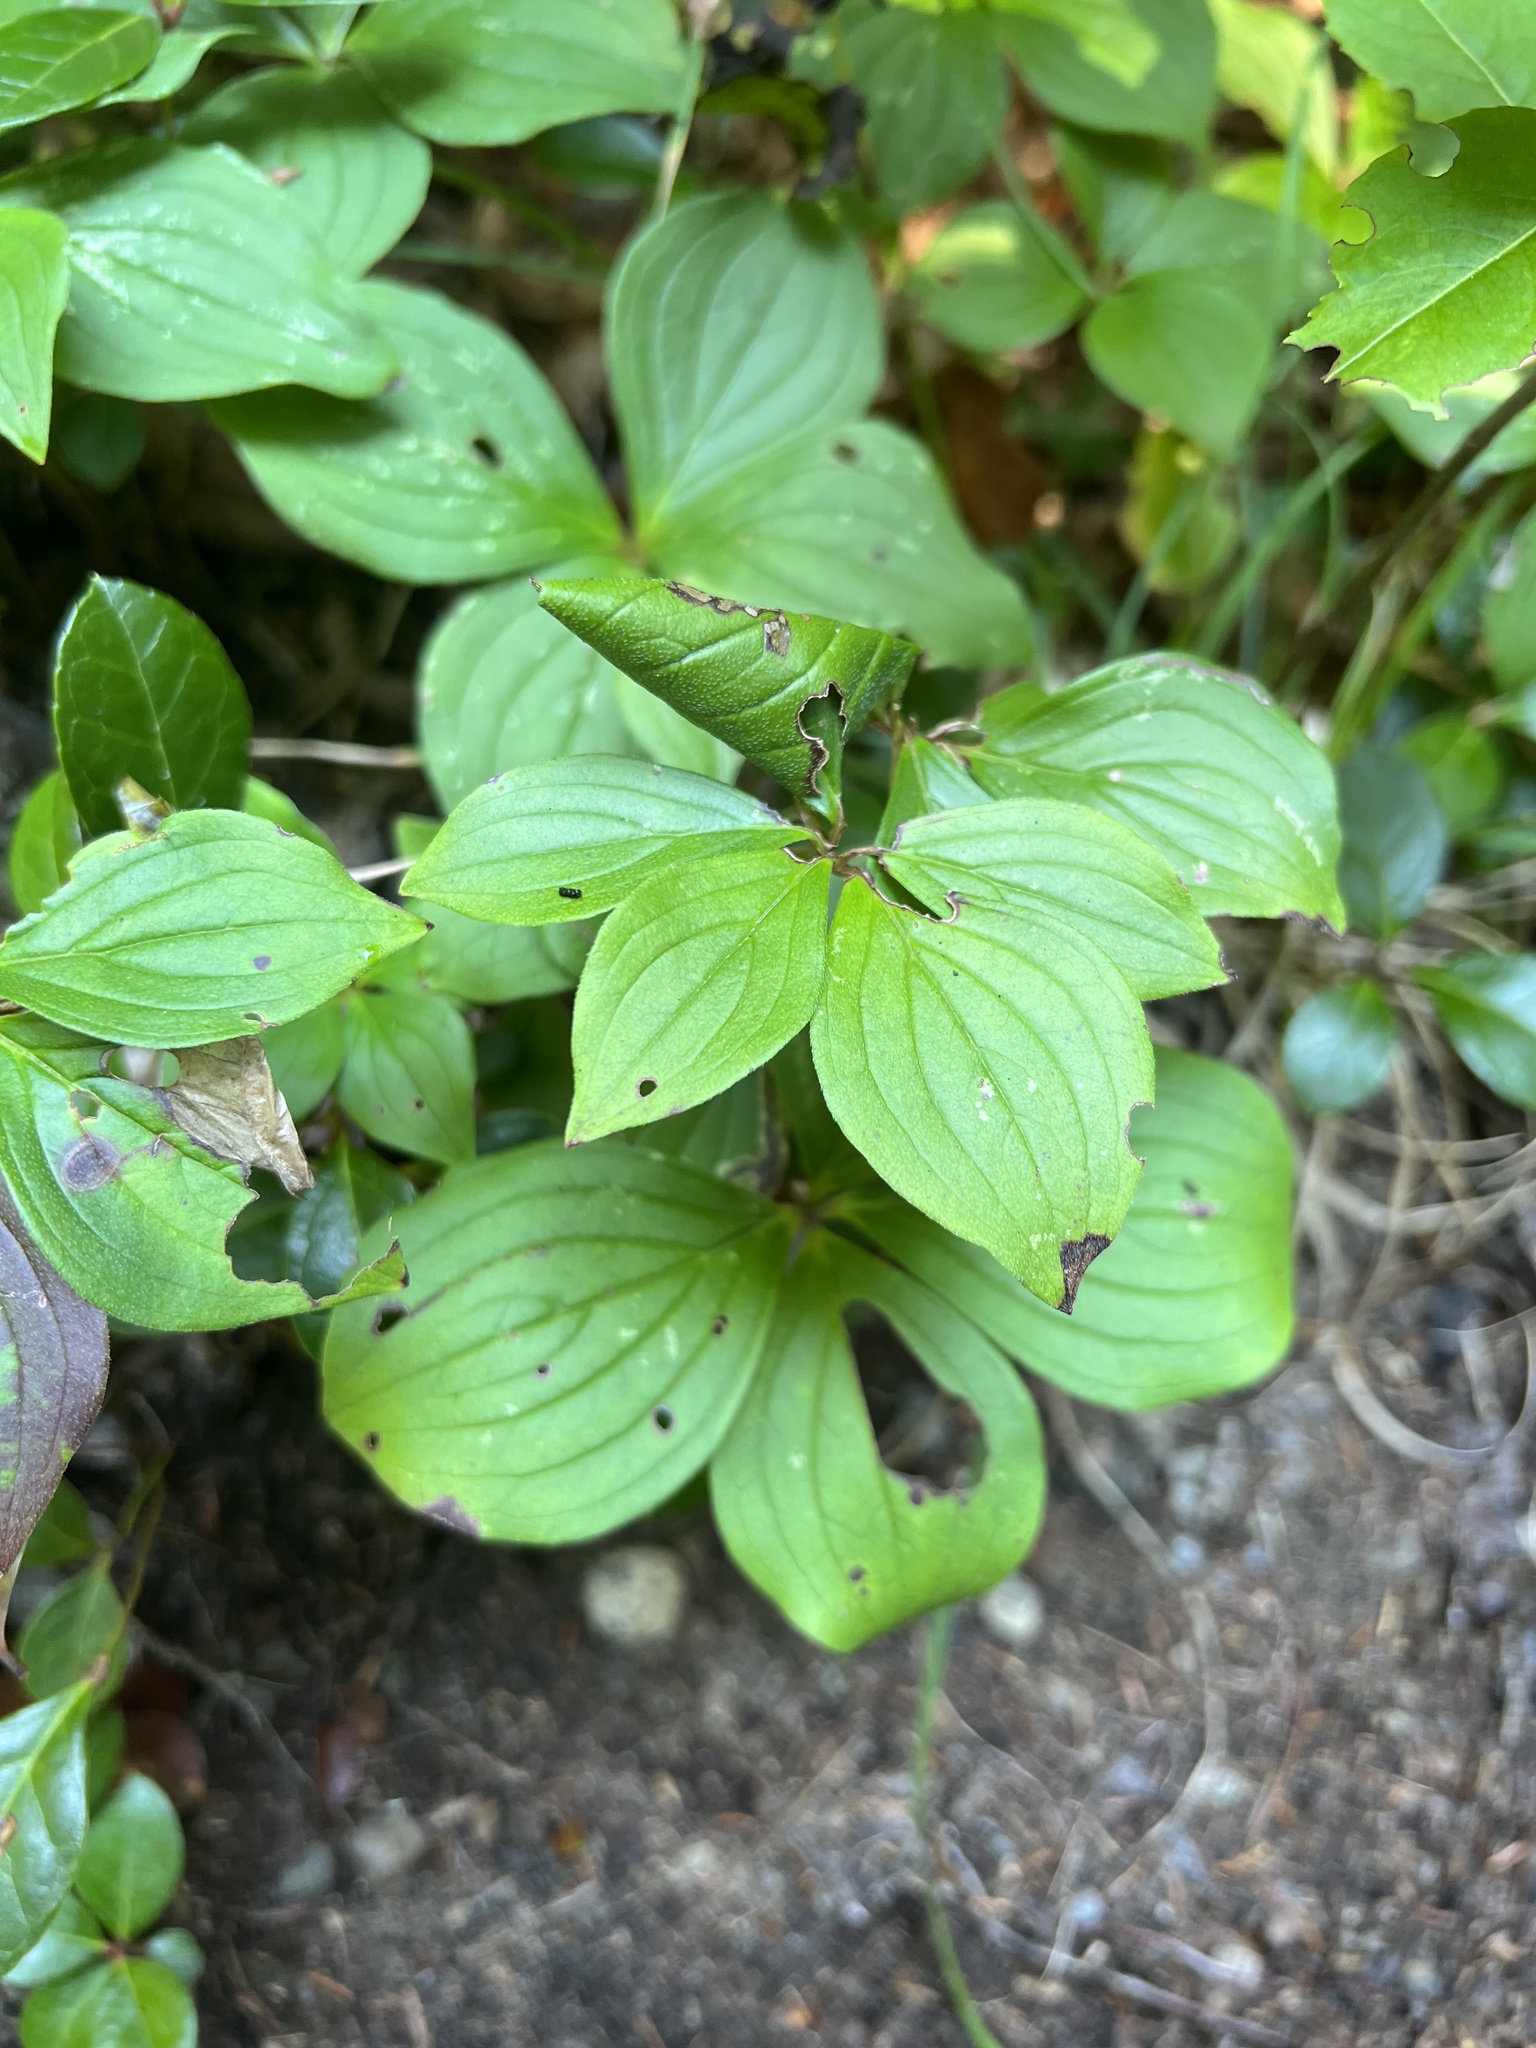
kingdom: Plantae
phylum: Tracheophyta
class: Magnoliopsida
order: Cornales
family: Cornaceae
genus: Cornus
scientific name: Cornus canadensis
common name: Creeping dogwood
